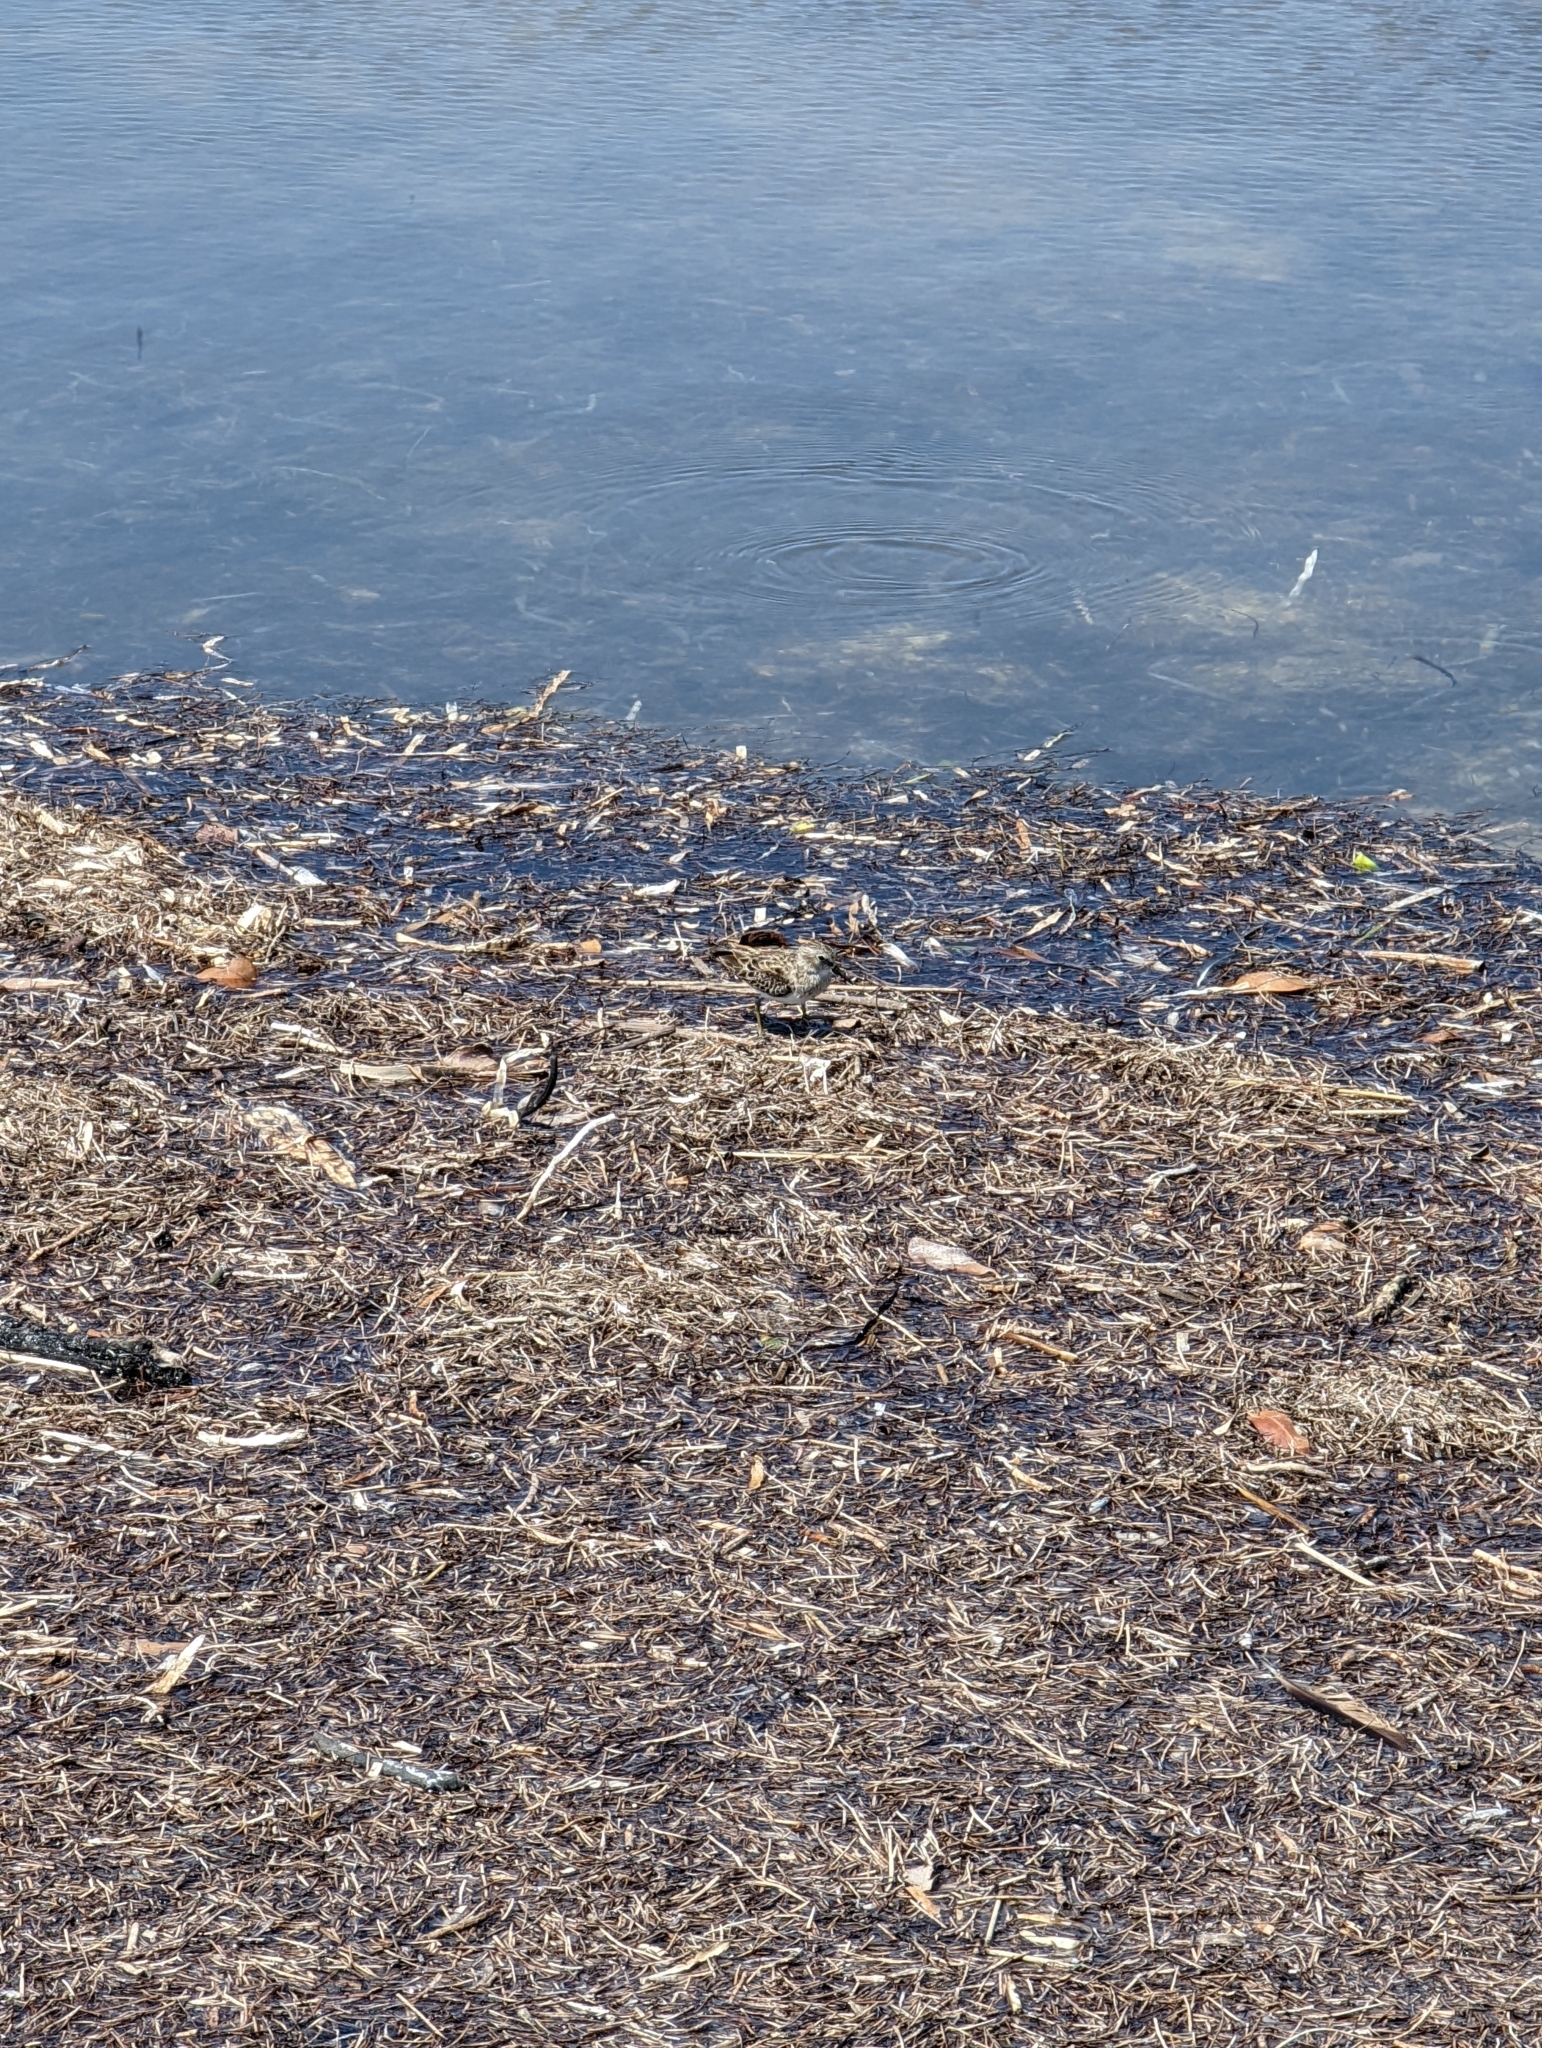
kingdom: Animalia
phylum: Chordata
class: Aves
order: Charadriiformes
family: Scolopacidae
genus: Calidris
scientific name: Calidris minutilla
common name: Least sandpiper
